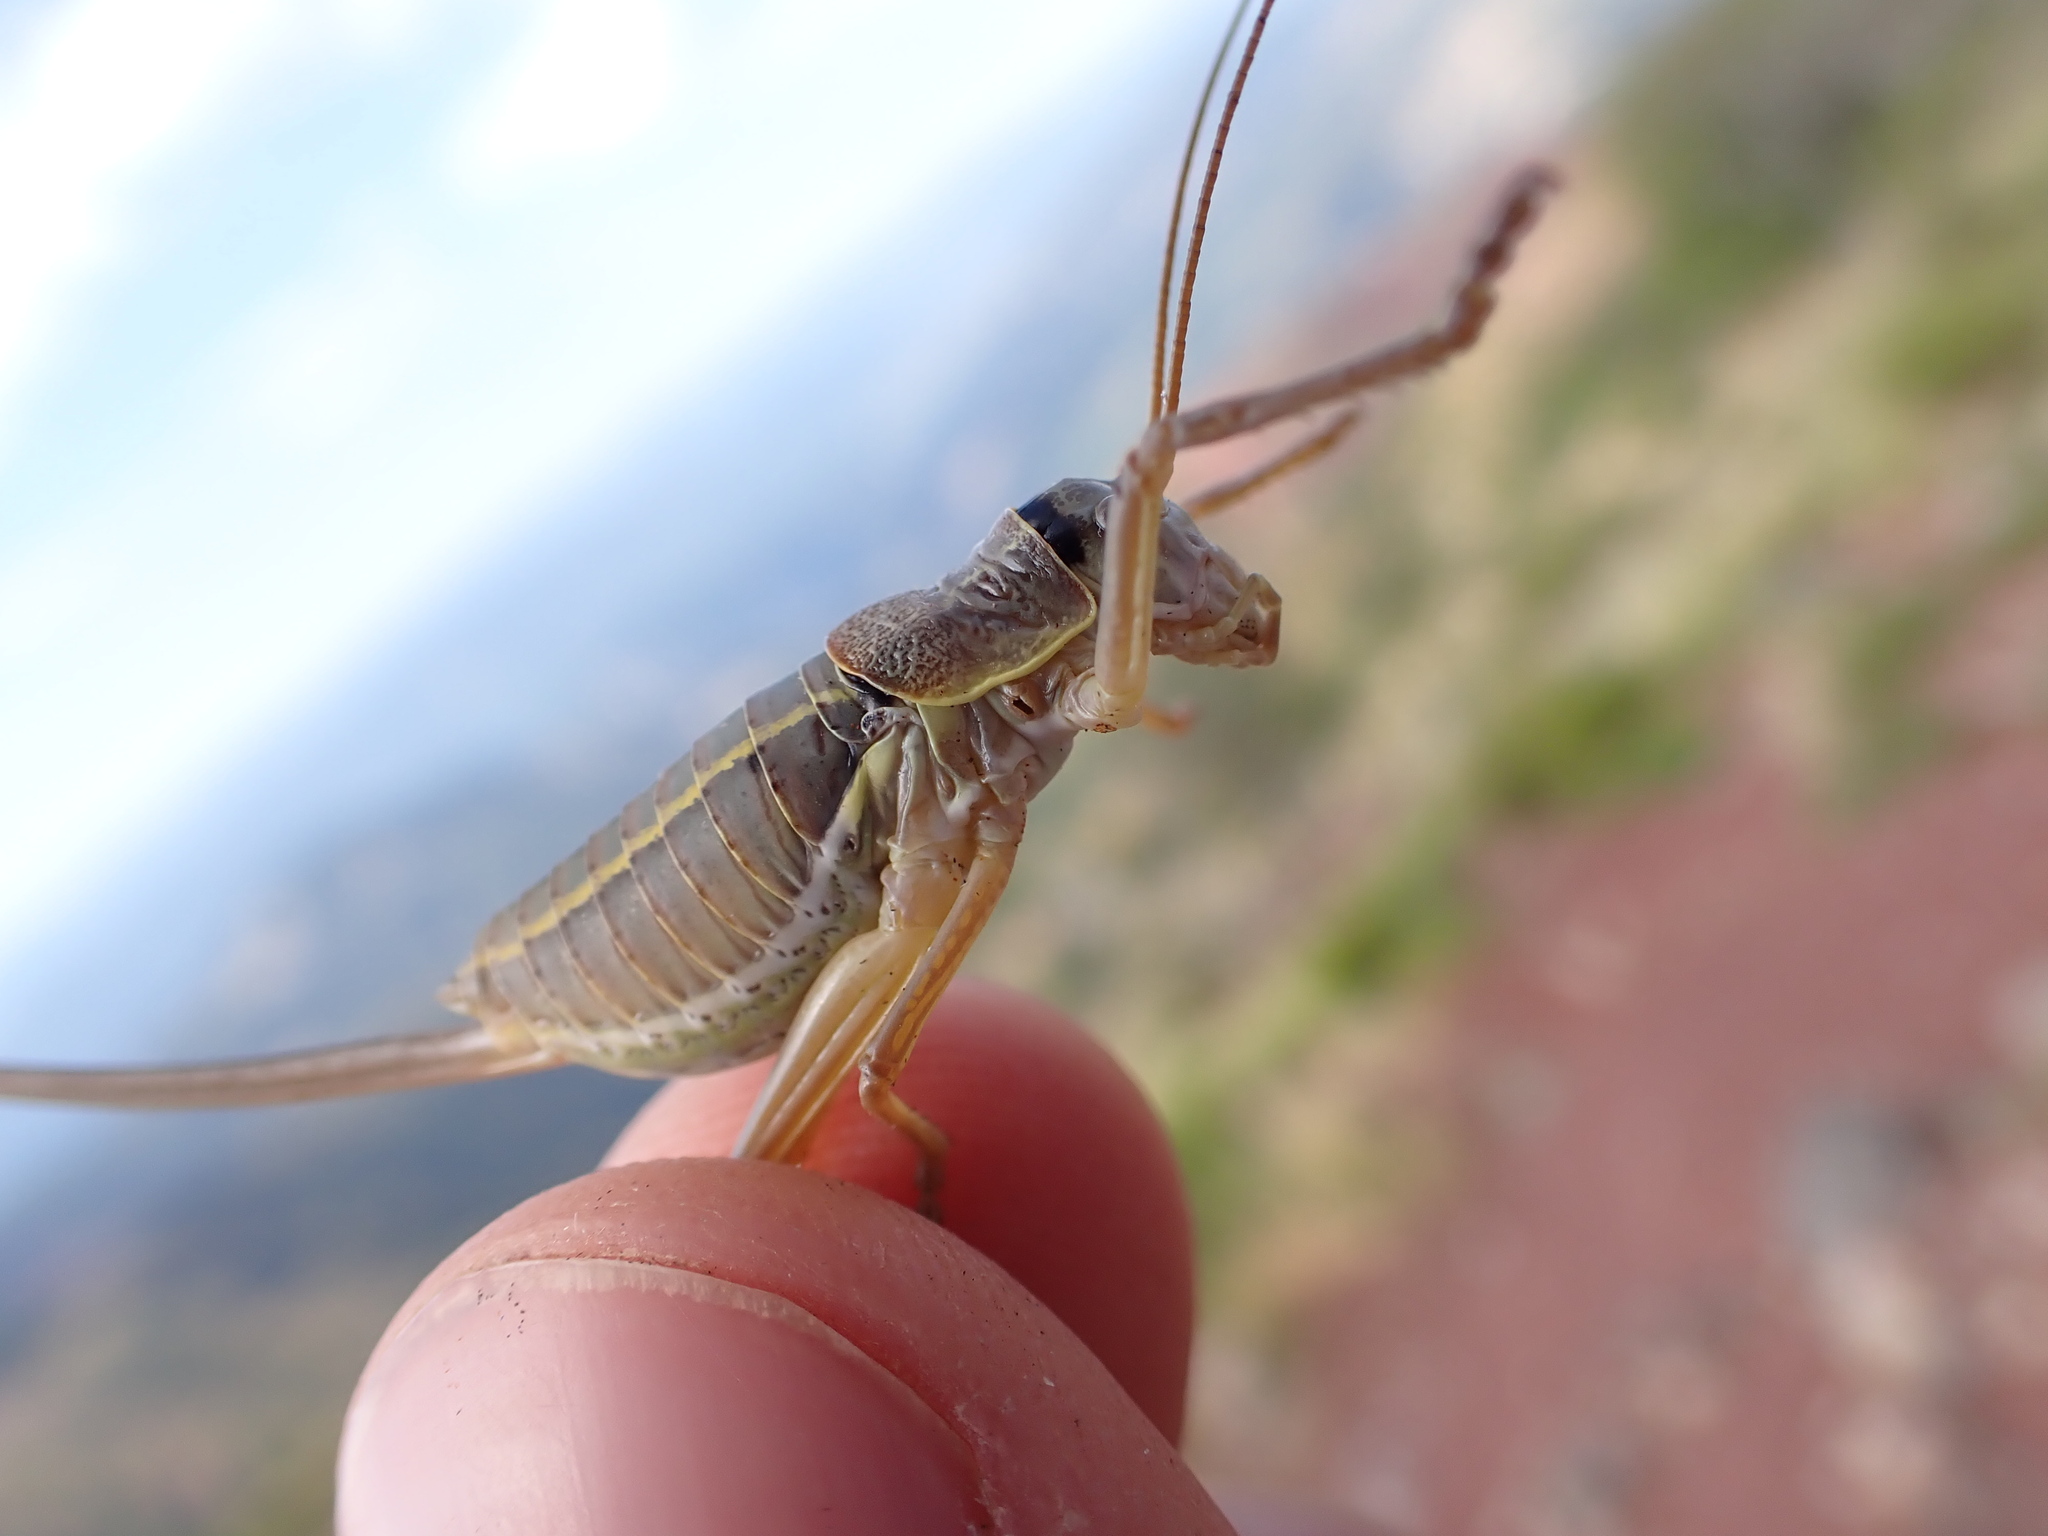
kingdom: Animalia
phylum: Arthropoda
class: Insecta
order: Orthoptera
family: Tettigoniidae
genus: Ephippiger
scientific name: Ephippiger terrestris
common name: Alpine saddle-backed bush-cricket
